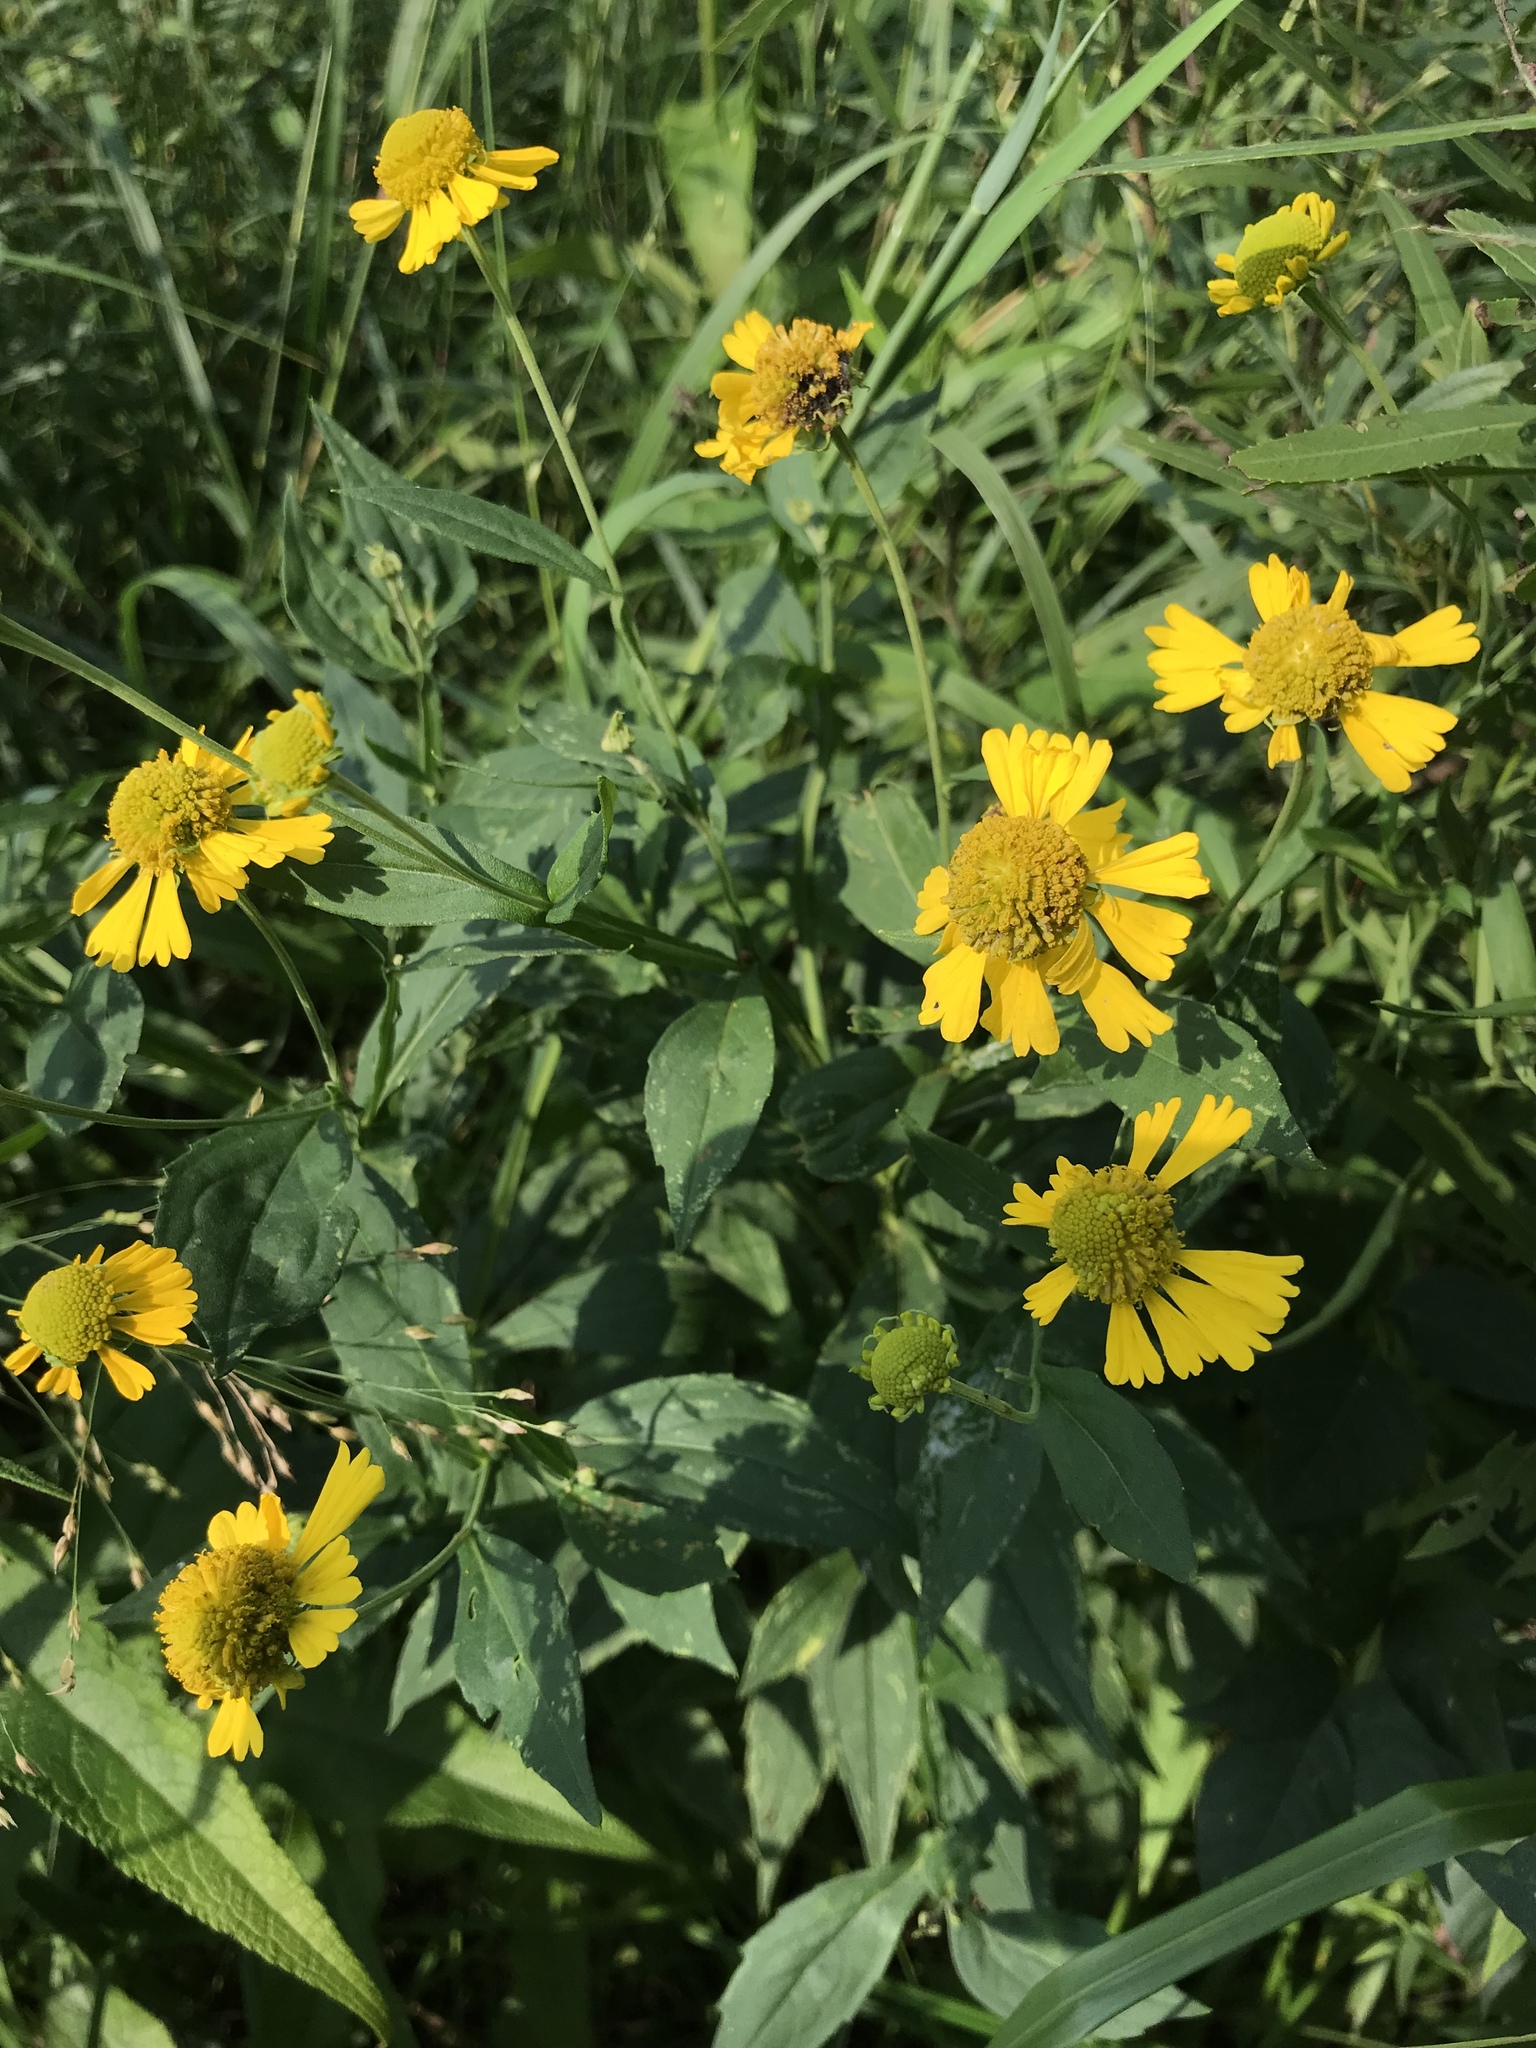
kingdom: Plantae
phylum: Tracheophyta
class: Magnoliopsida
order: Asterales
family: Asteraceae
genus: Helenium
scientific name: Helenium autumnale
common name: Sneezeweed
